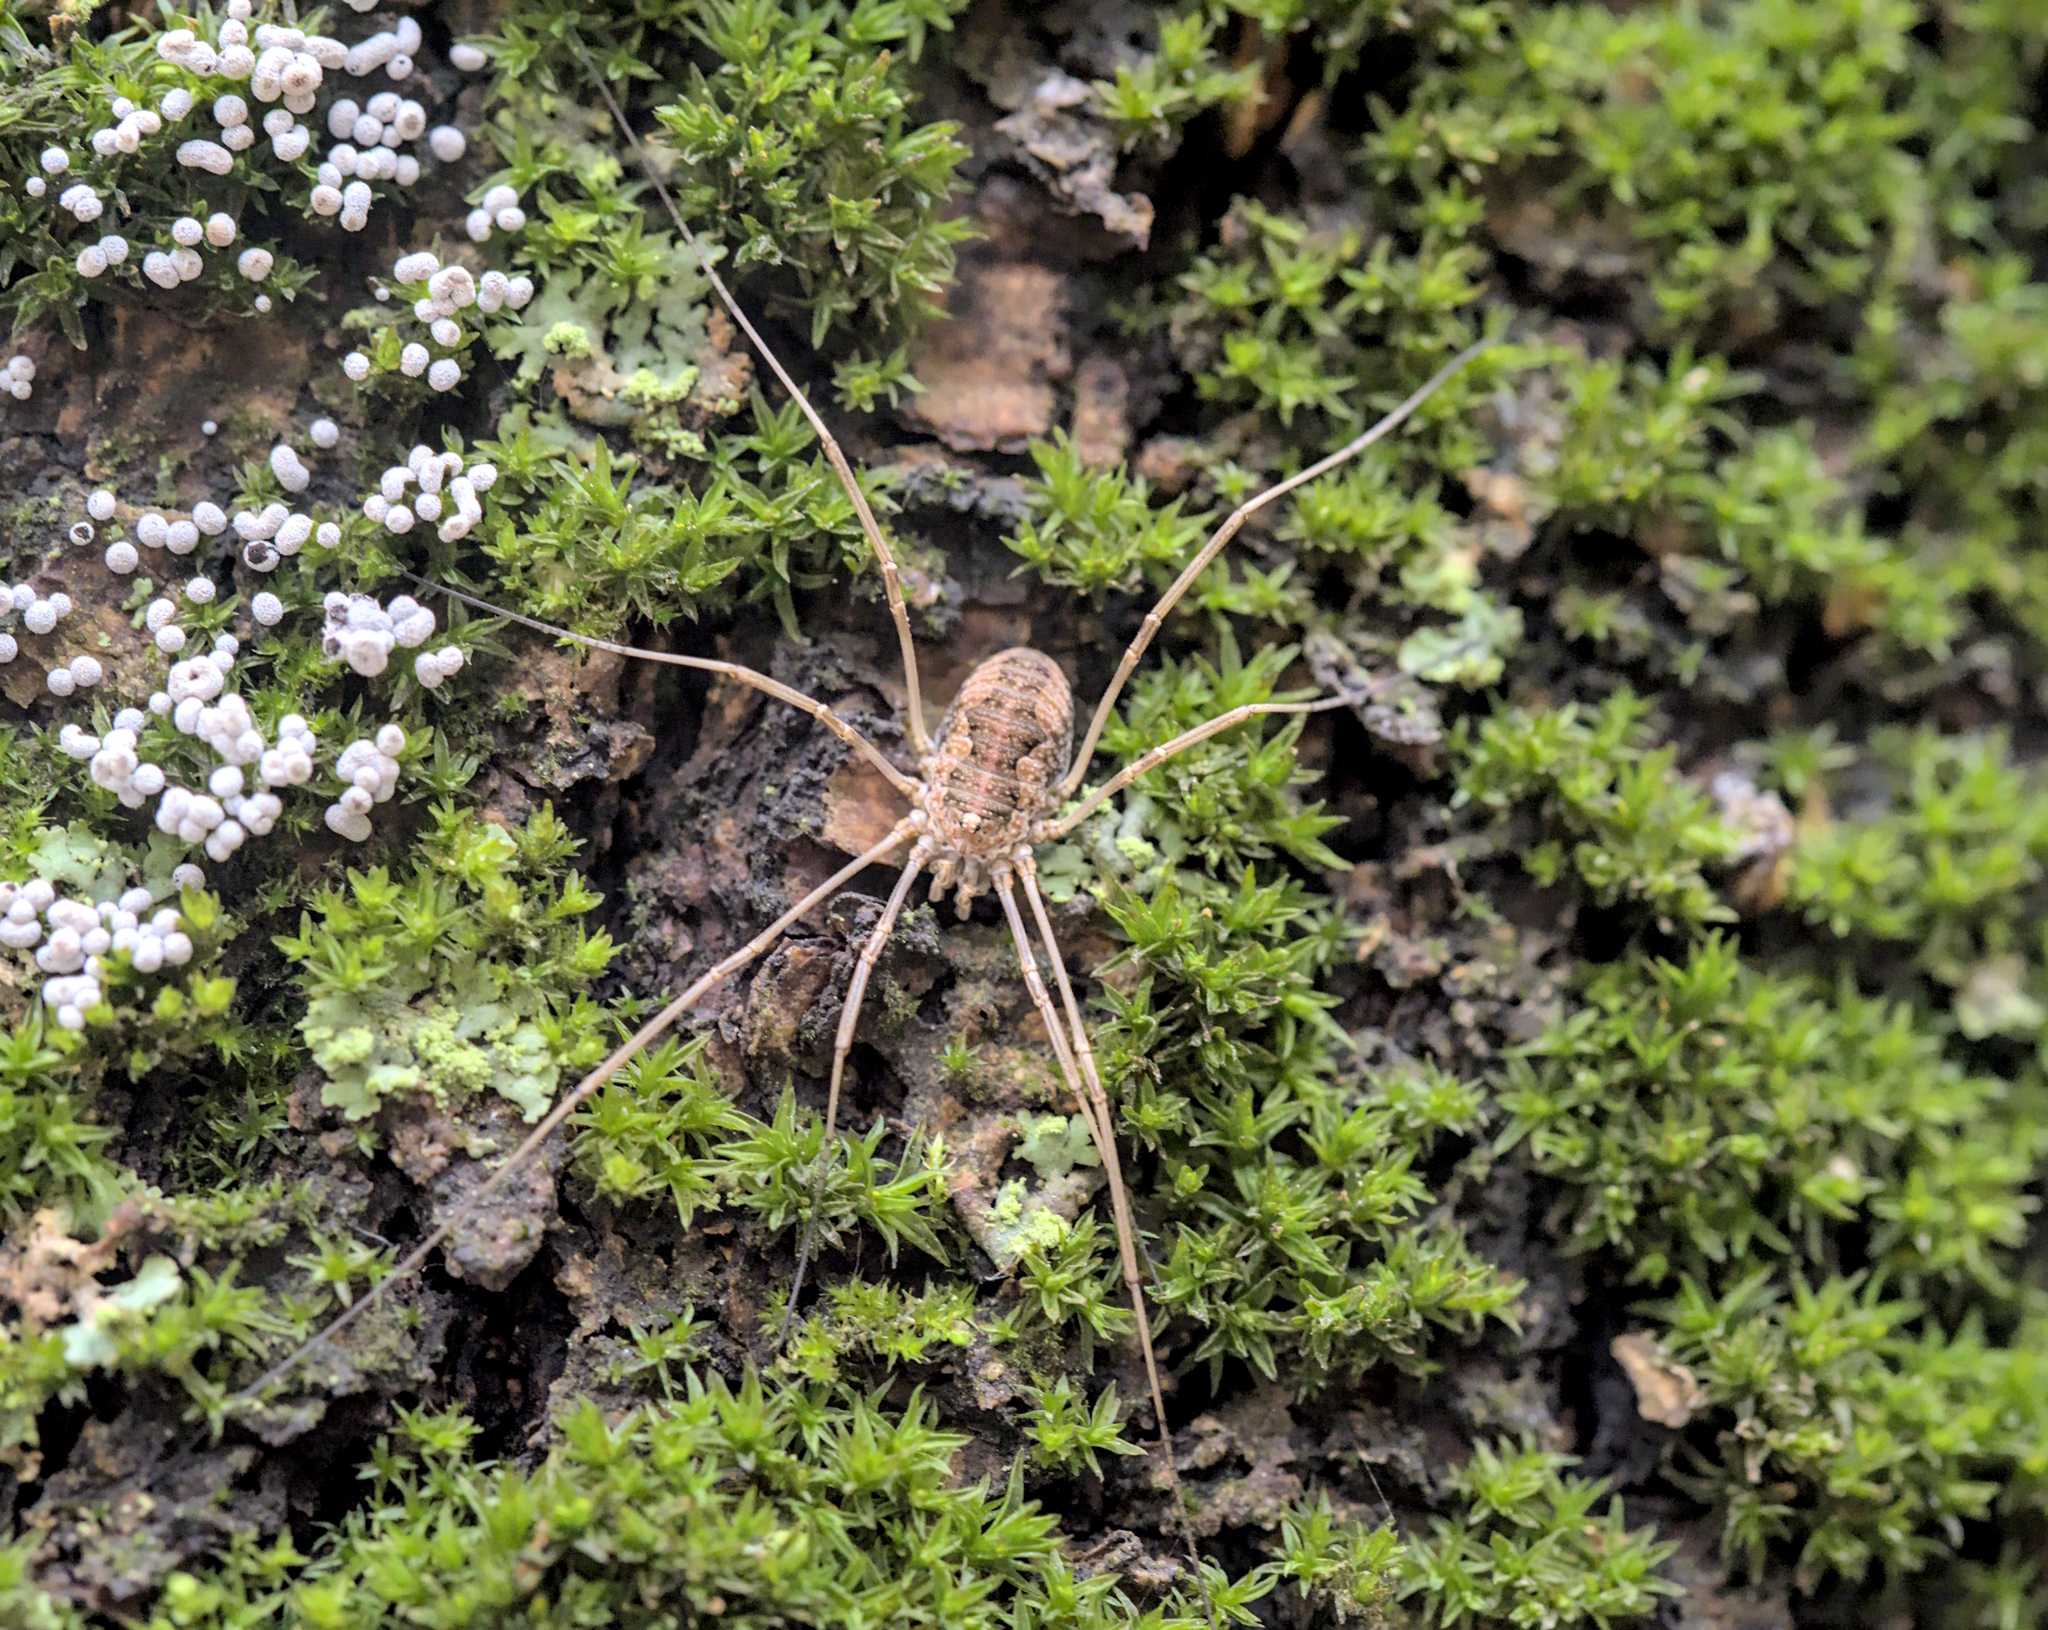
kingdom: Animalia
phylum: Arthropoda
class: Arachnida
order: Opiliones
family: Phalangiidae
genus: Phalangium
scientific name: Phalangium opilio
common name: Daddy longleg
